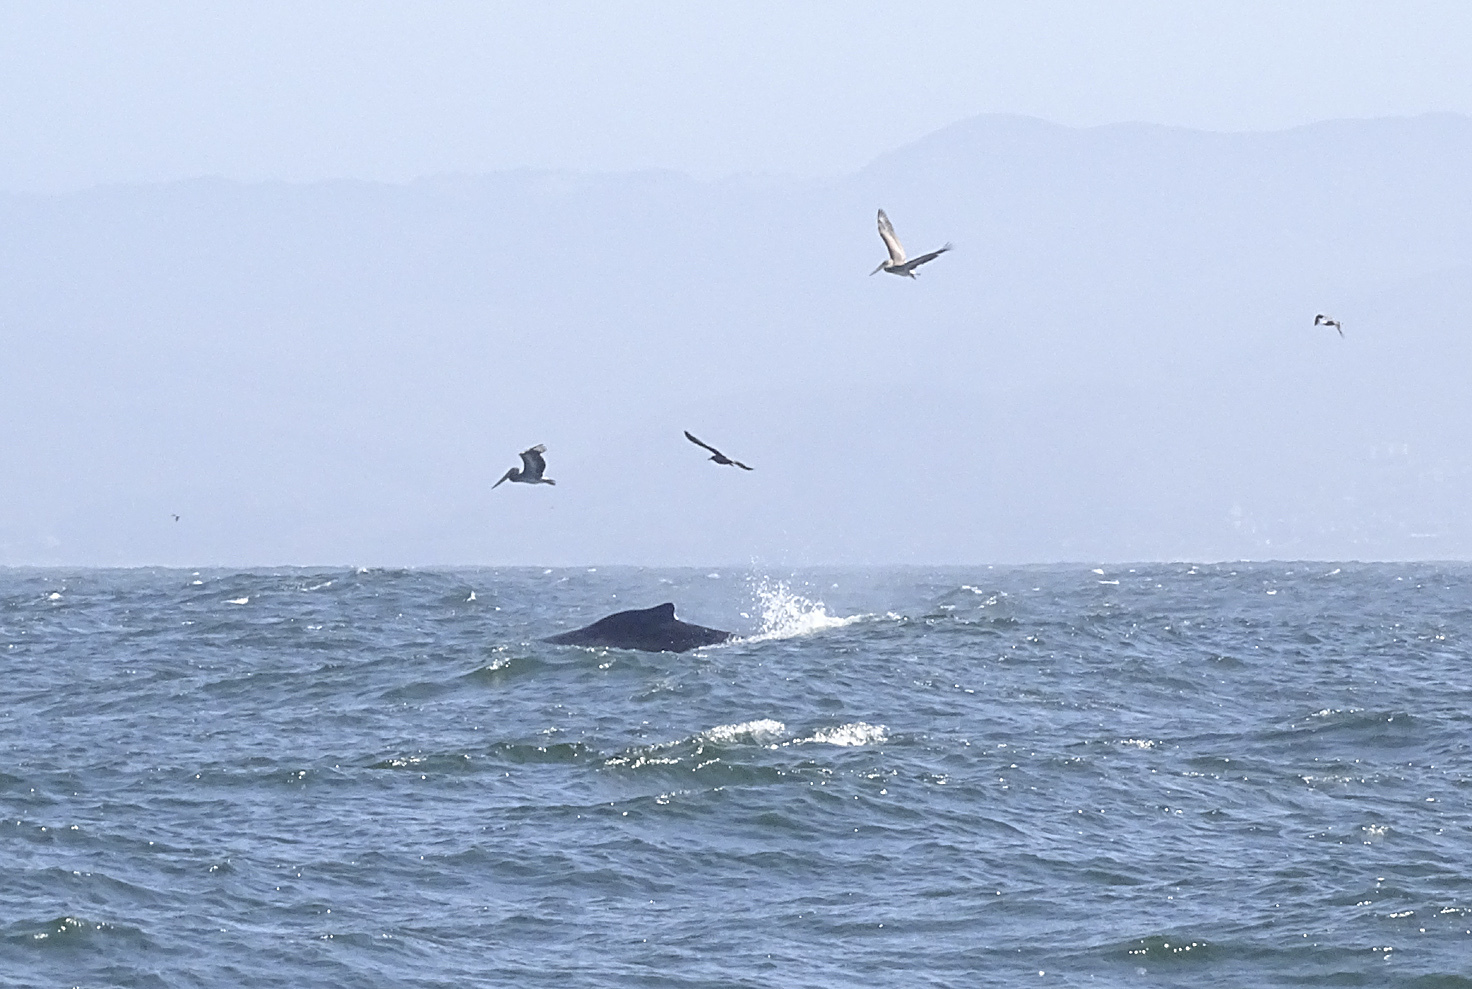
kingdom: Animalia
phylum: Chordata
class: Mammalia
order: Cetacea
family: Balaenopteridae
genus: Megaptera
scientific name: Megaptera novaeangliae
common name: Humpback whale
